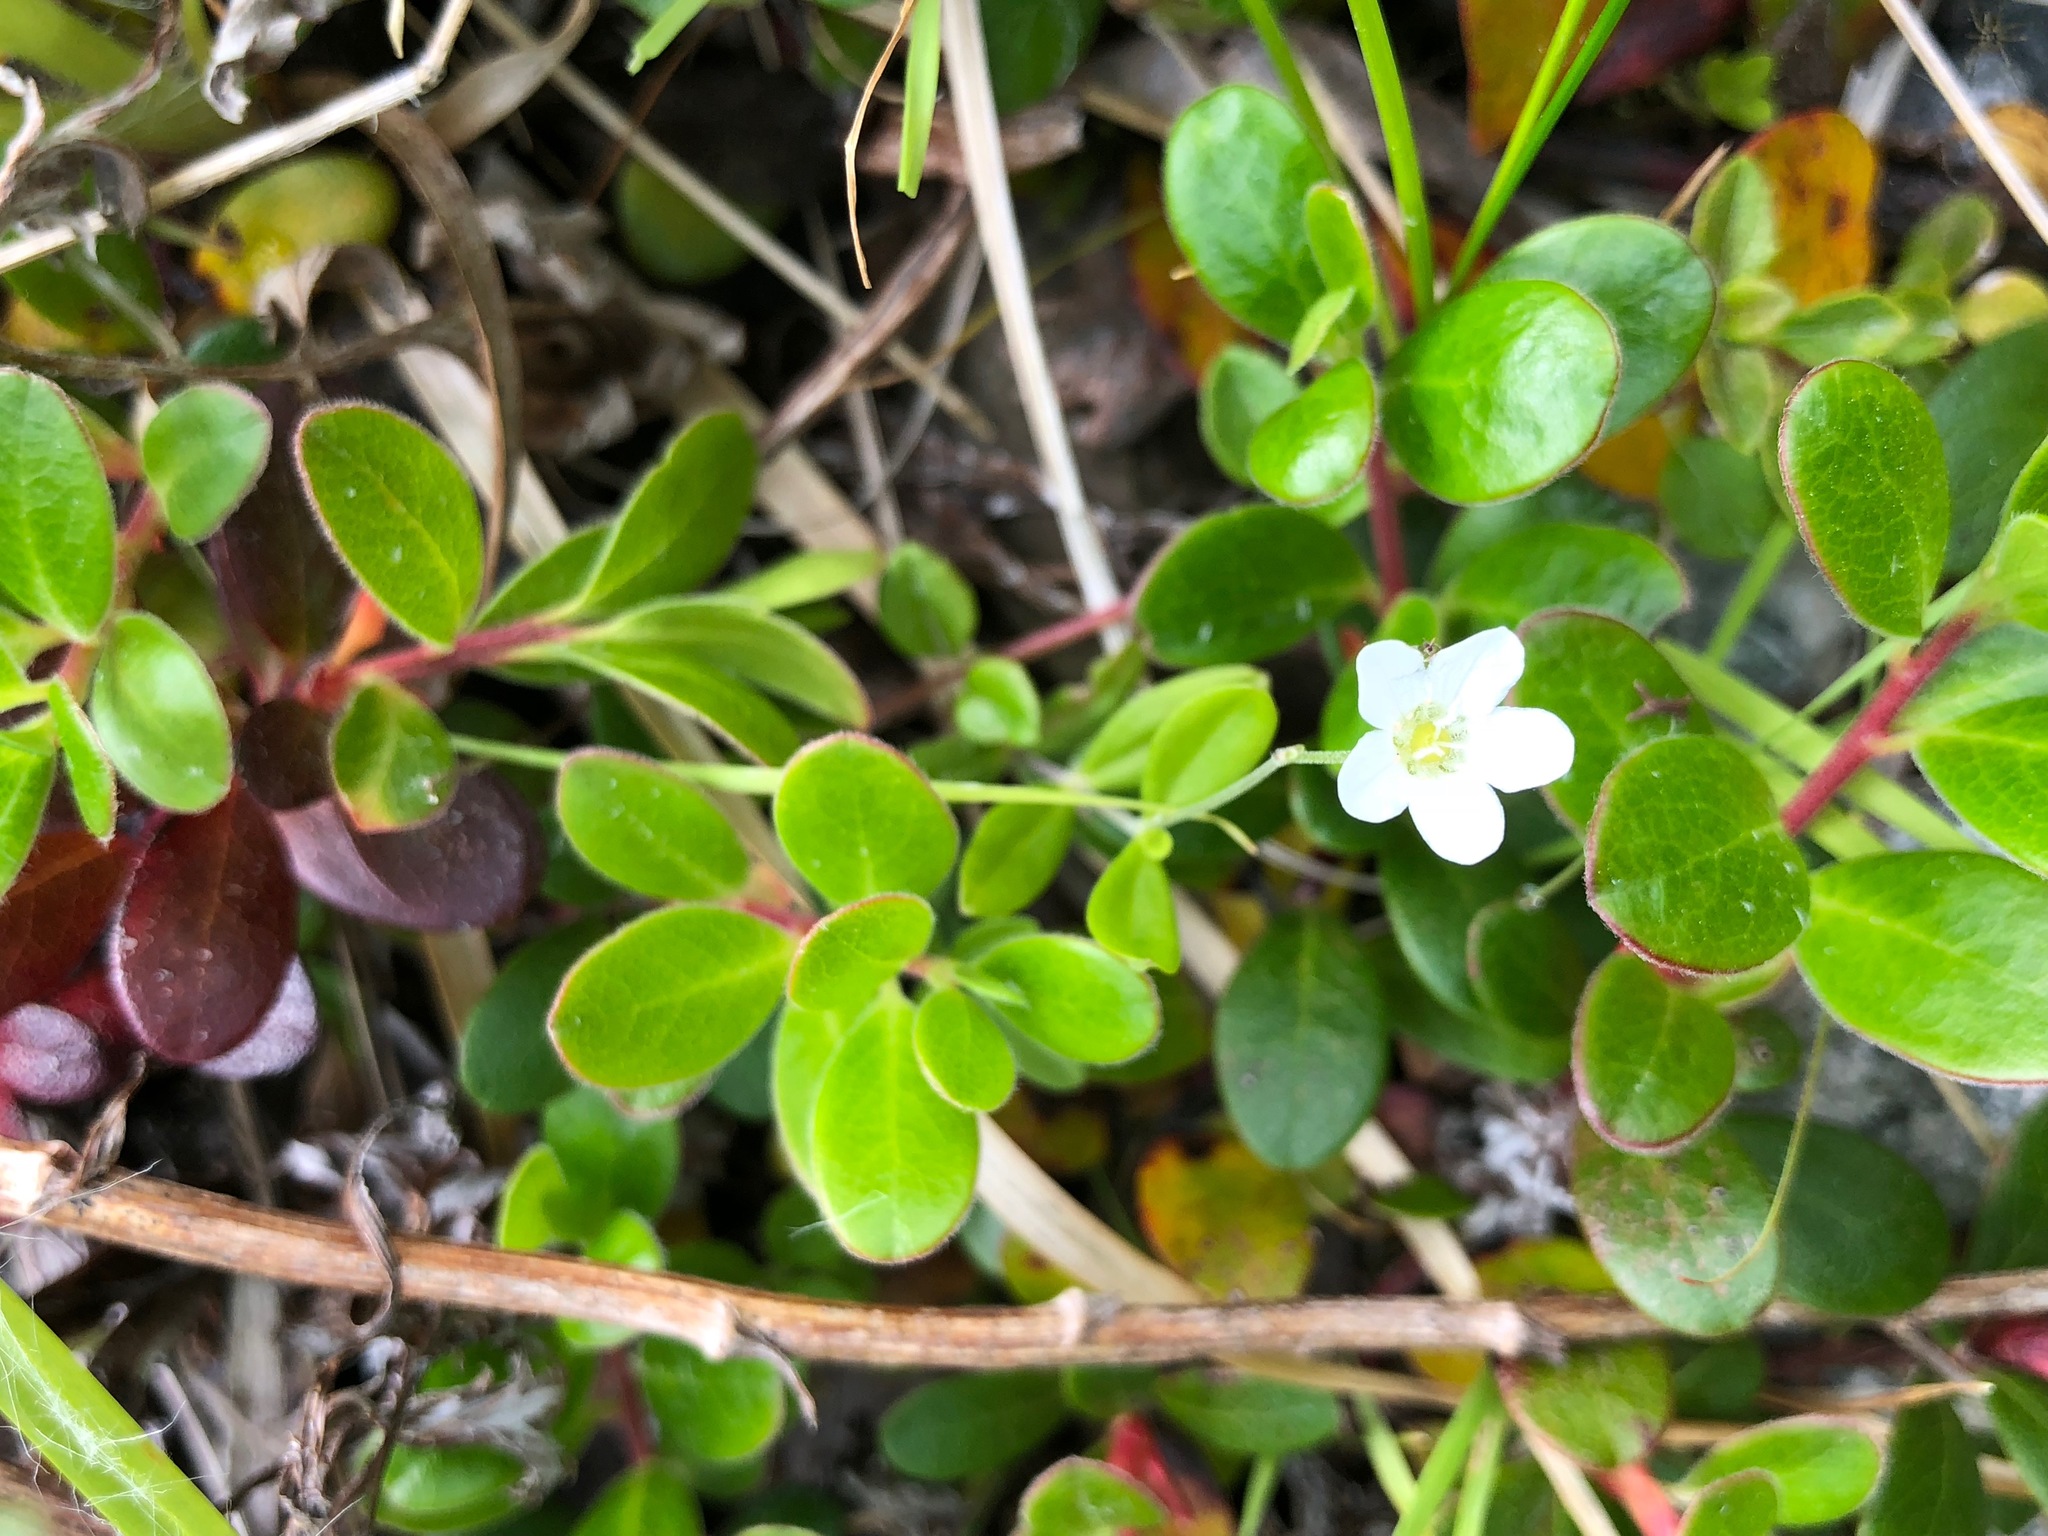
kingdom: Plantae
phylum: Tracheophyta
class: Magnoliopsida
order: Caryophyllales
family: Caryophyllaceae
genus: Moehringia
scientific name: Moehringia lateriflora
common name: Blunt-leaved sandwort
